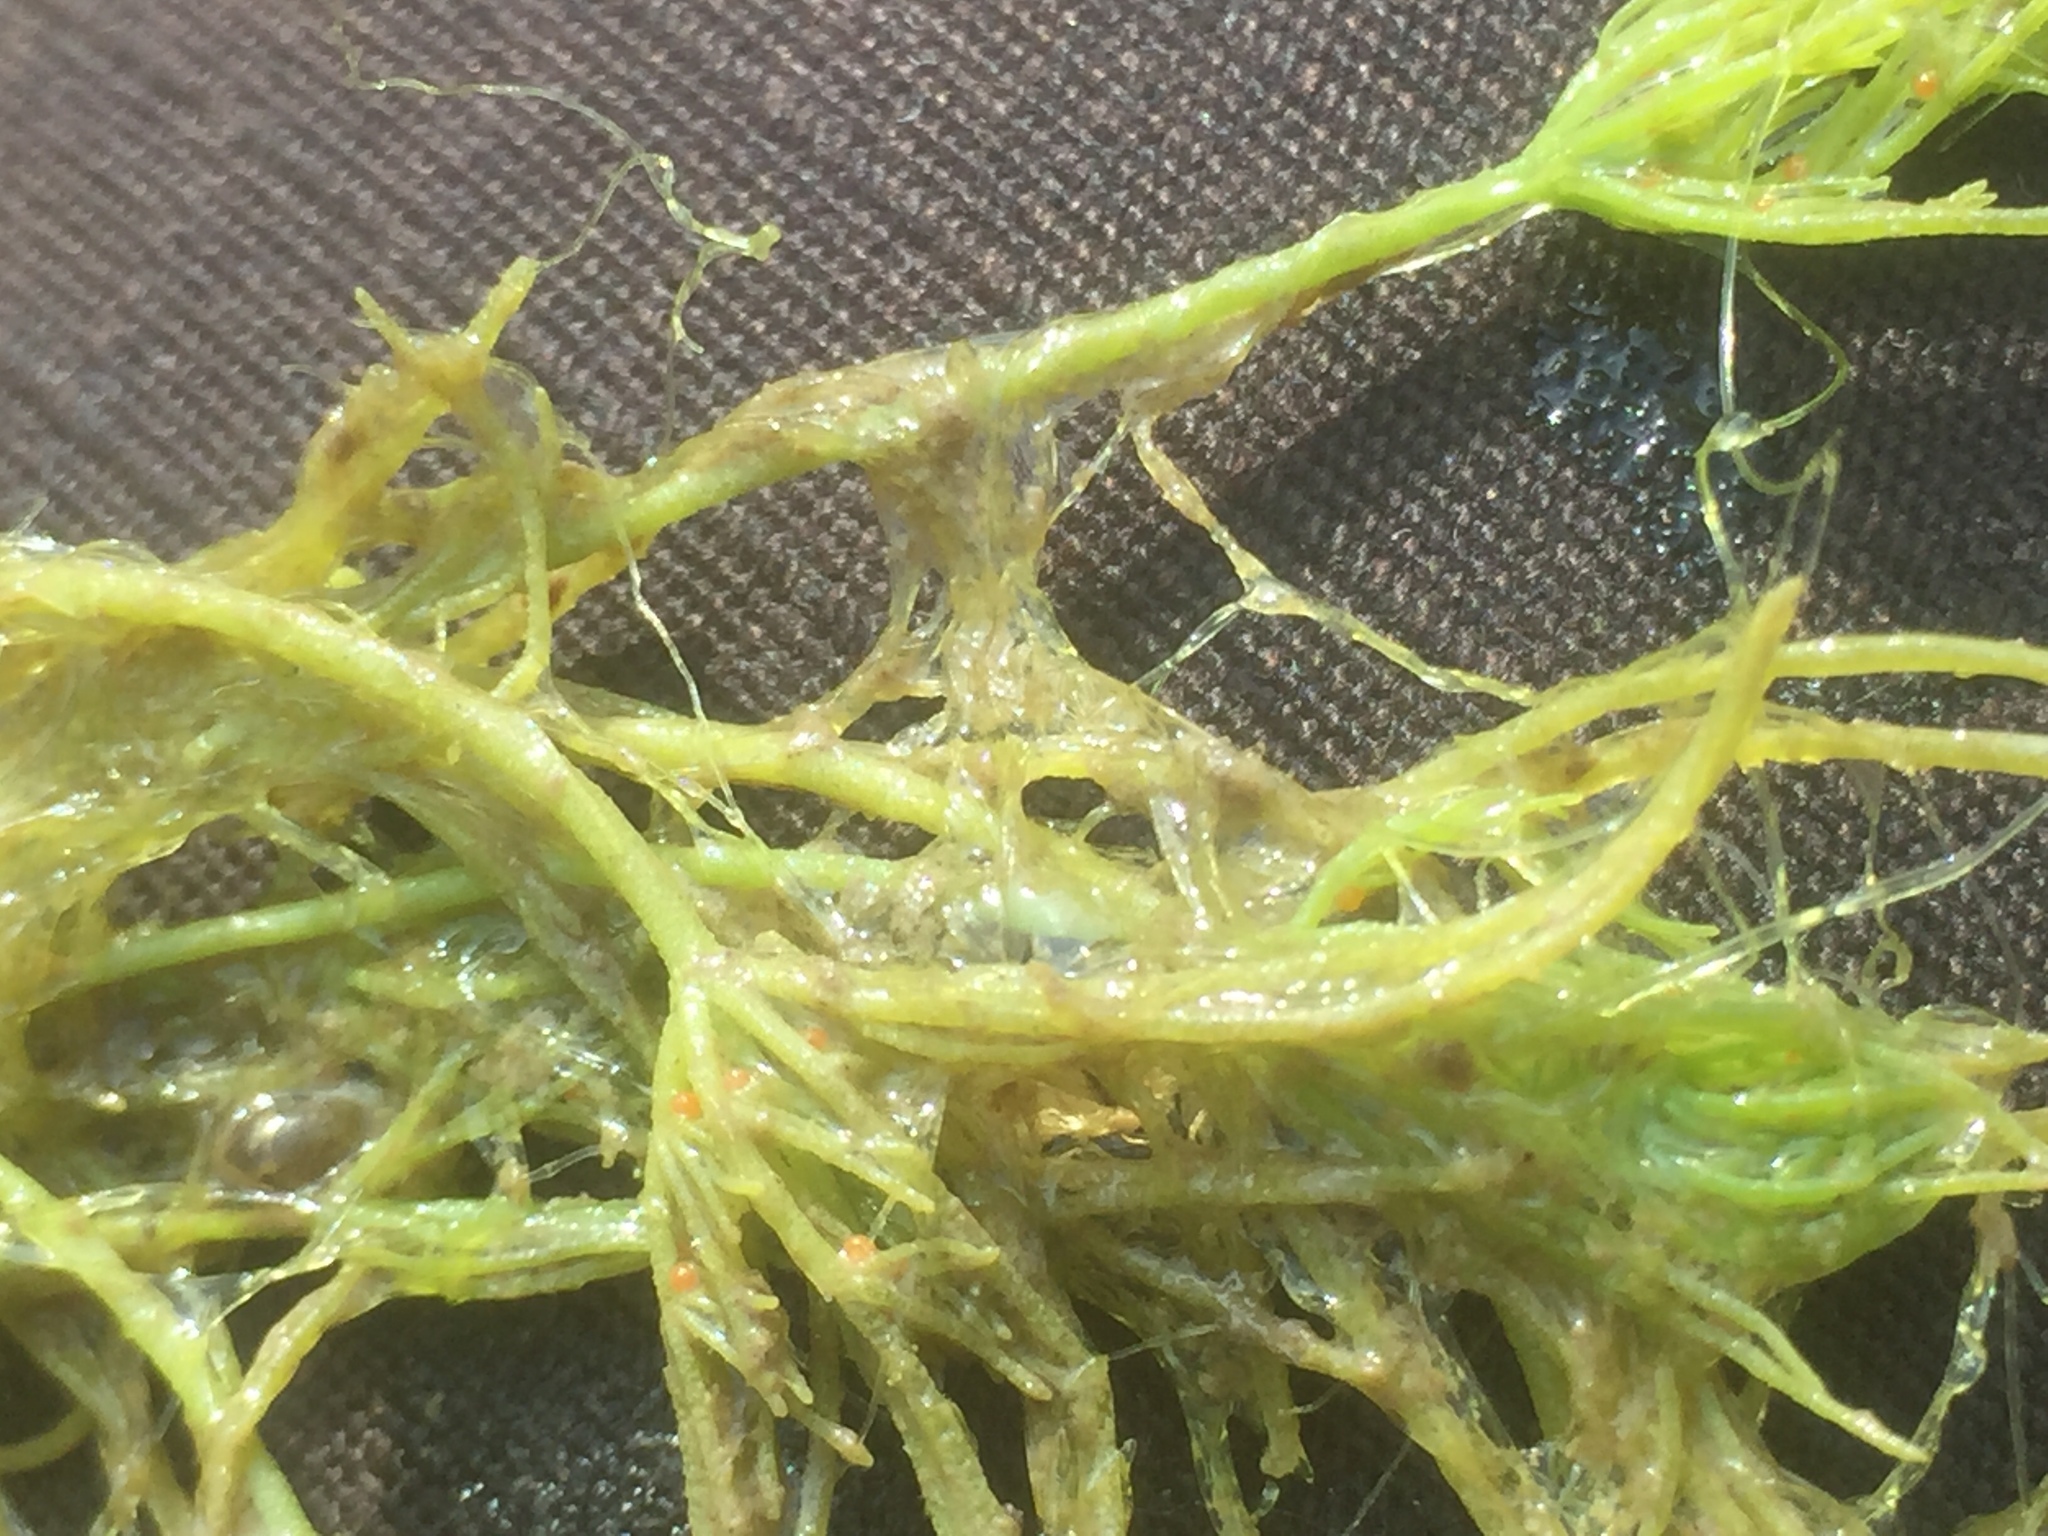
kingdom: Plantae
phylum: Charophyta
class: Charophyceae
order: Charales
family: Characeae
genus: Chara
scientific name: Chara vulgaris
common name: Common stonewort
